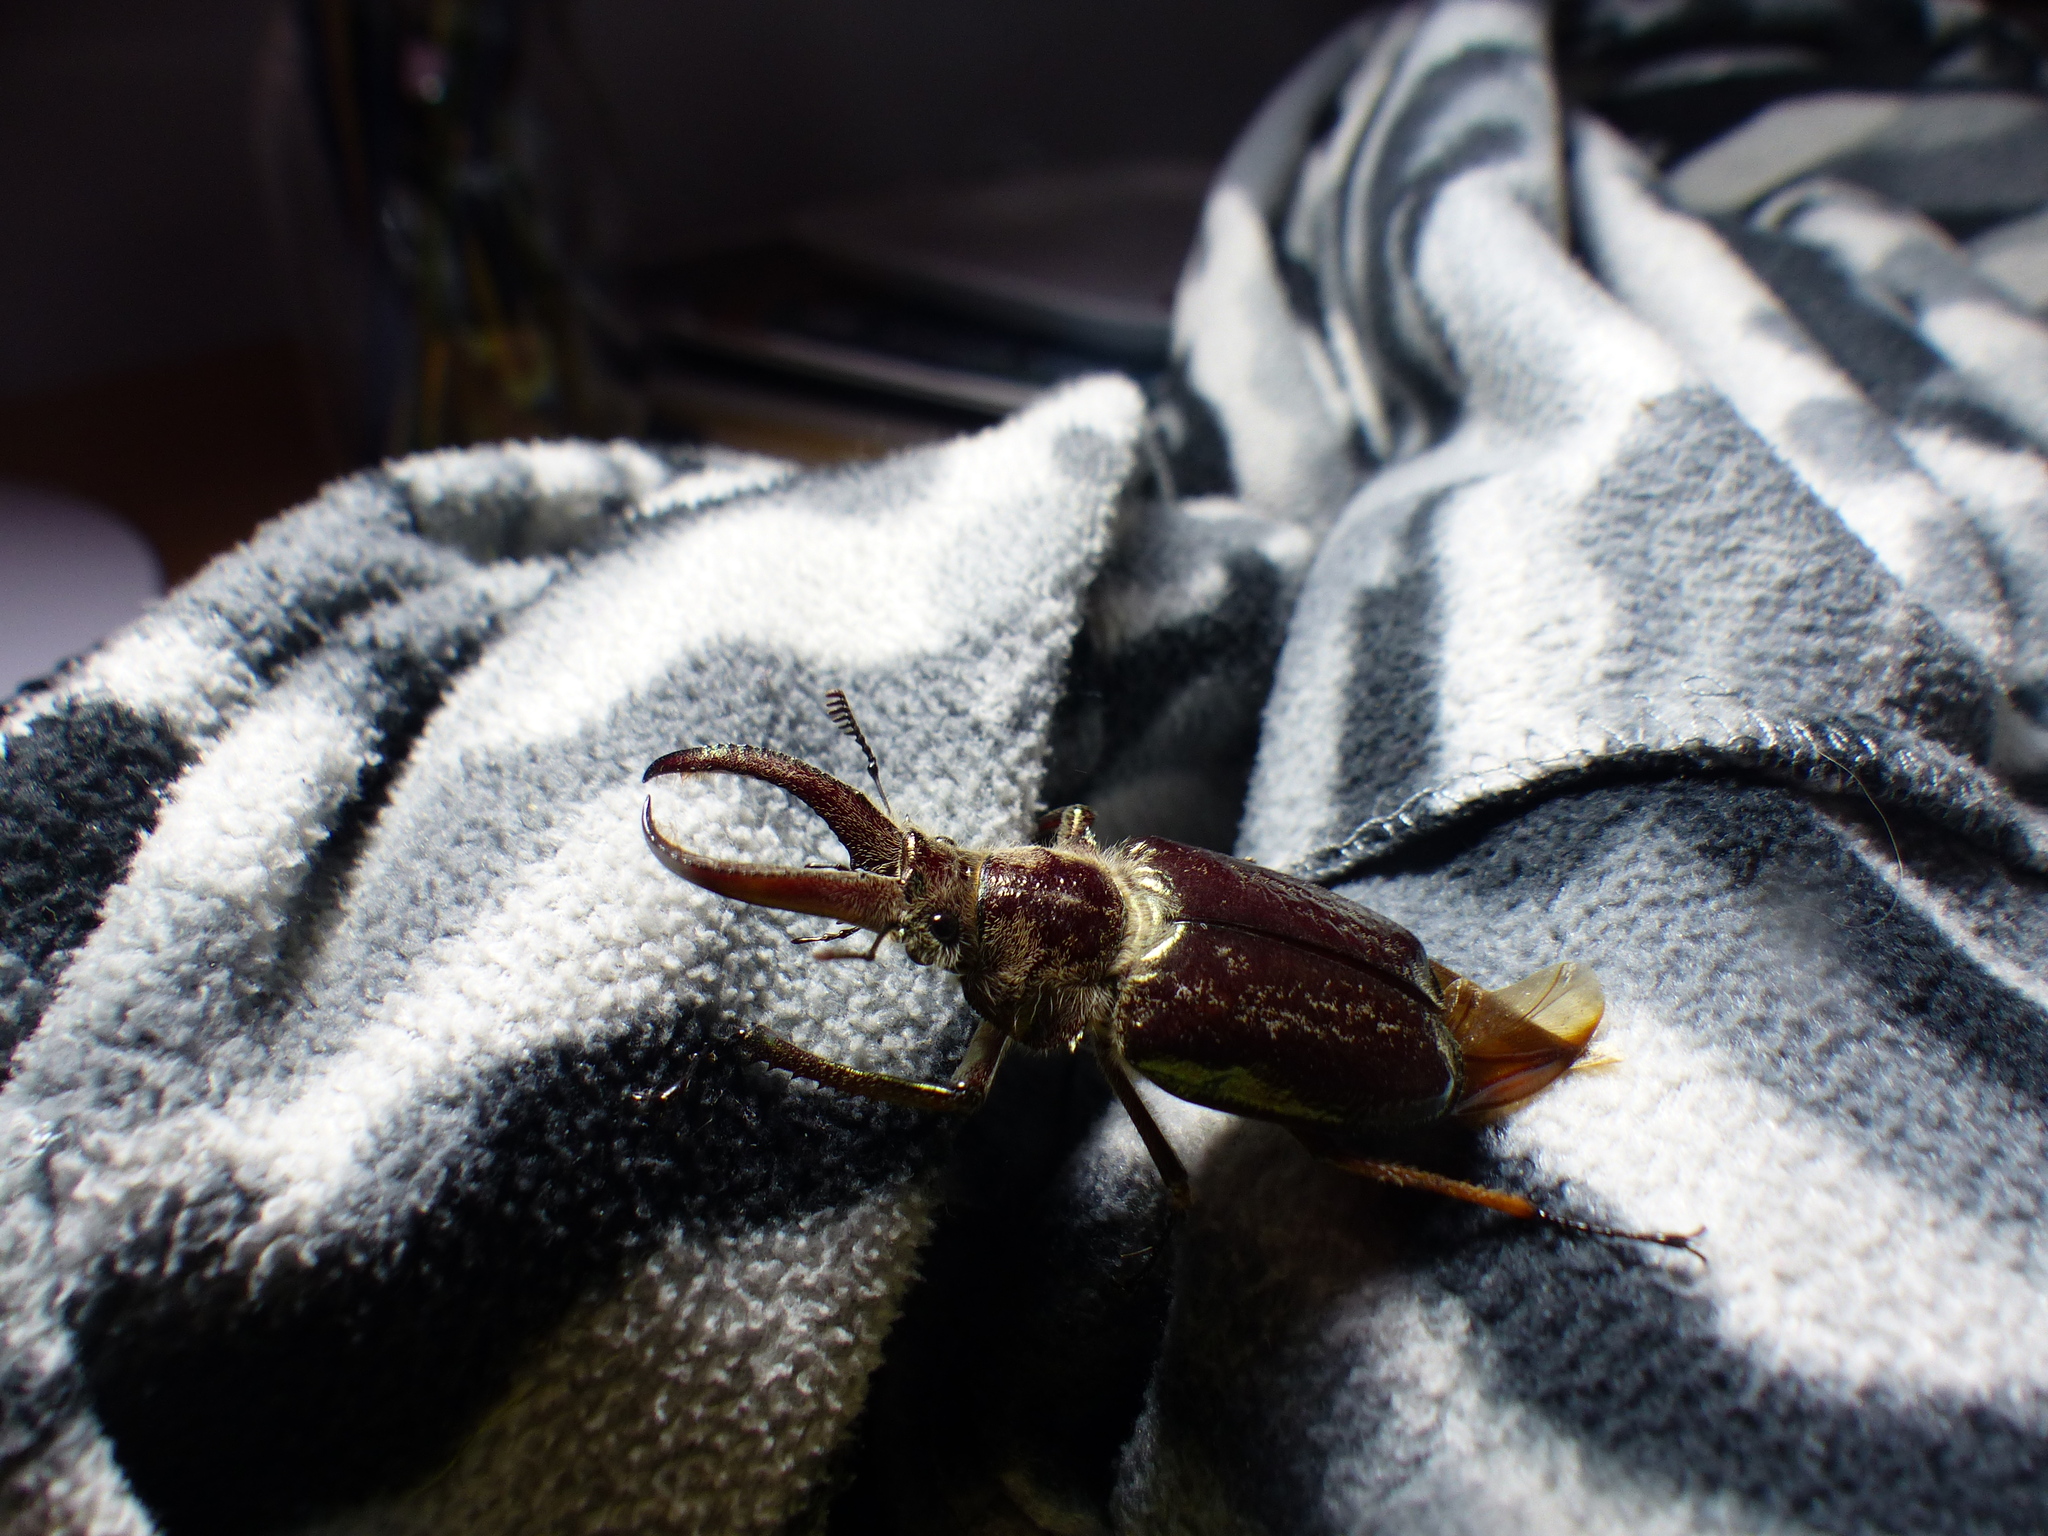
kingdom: Animalia
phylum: Arthropoda
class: Insecta
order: Coleoptera
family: Lucanidae
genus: Sphaenognathus
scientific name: Sphaenognathus feisthamelii
